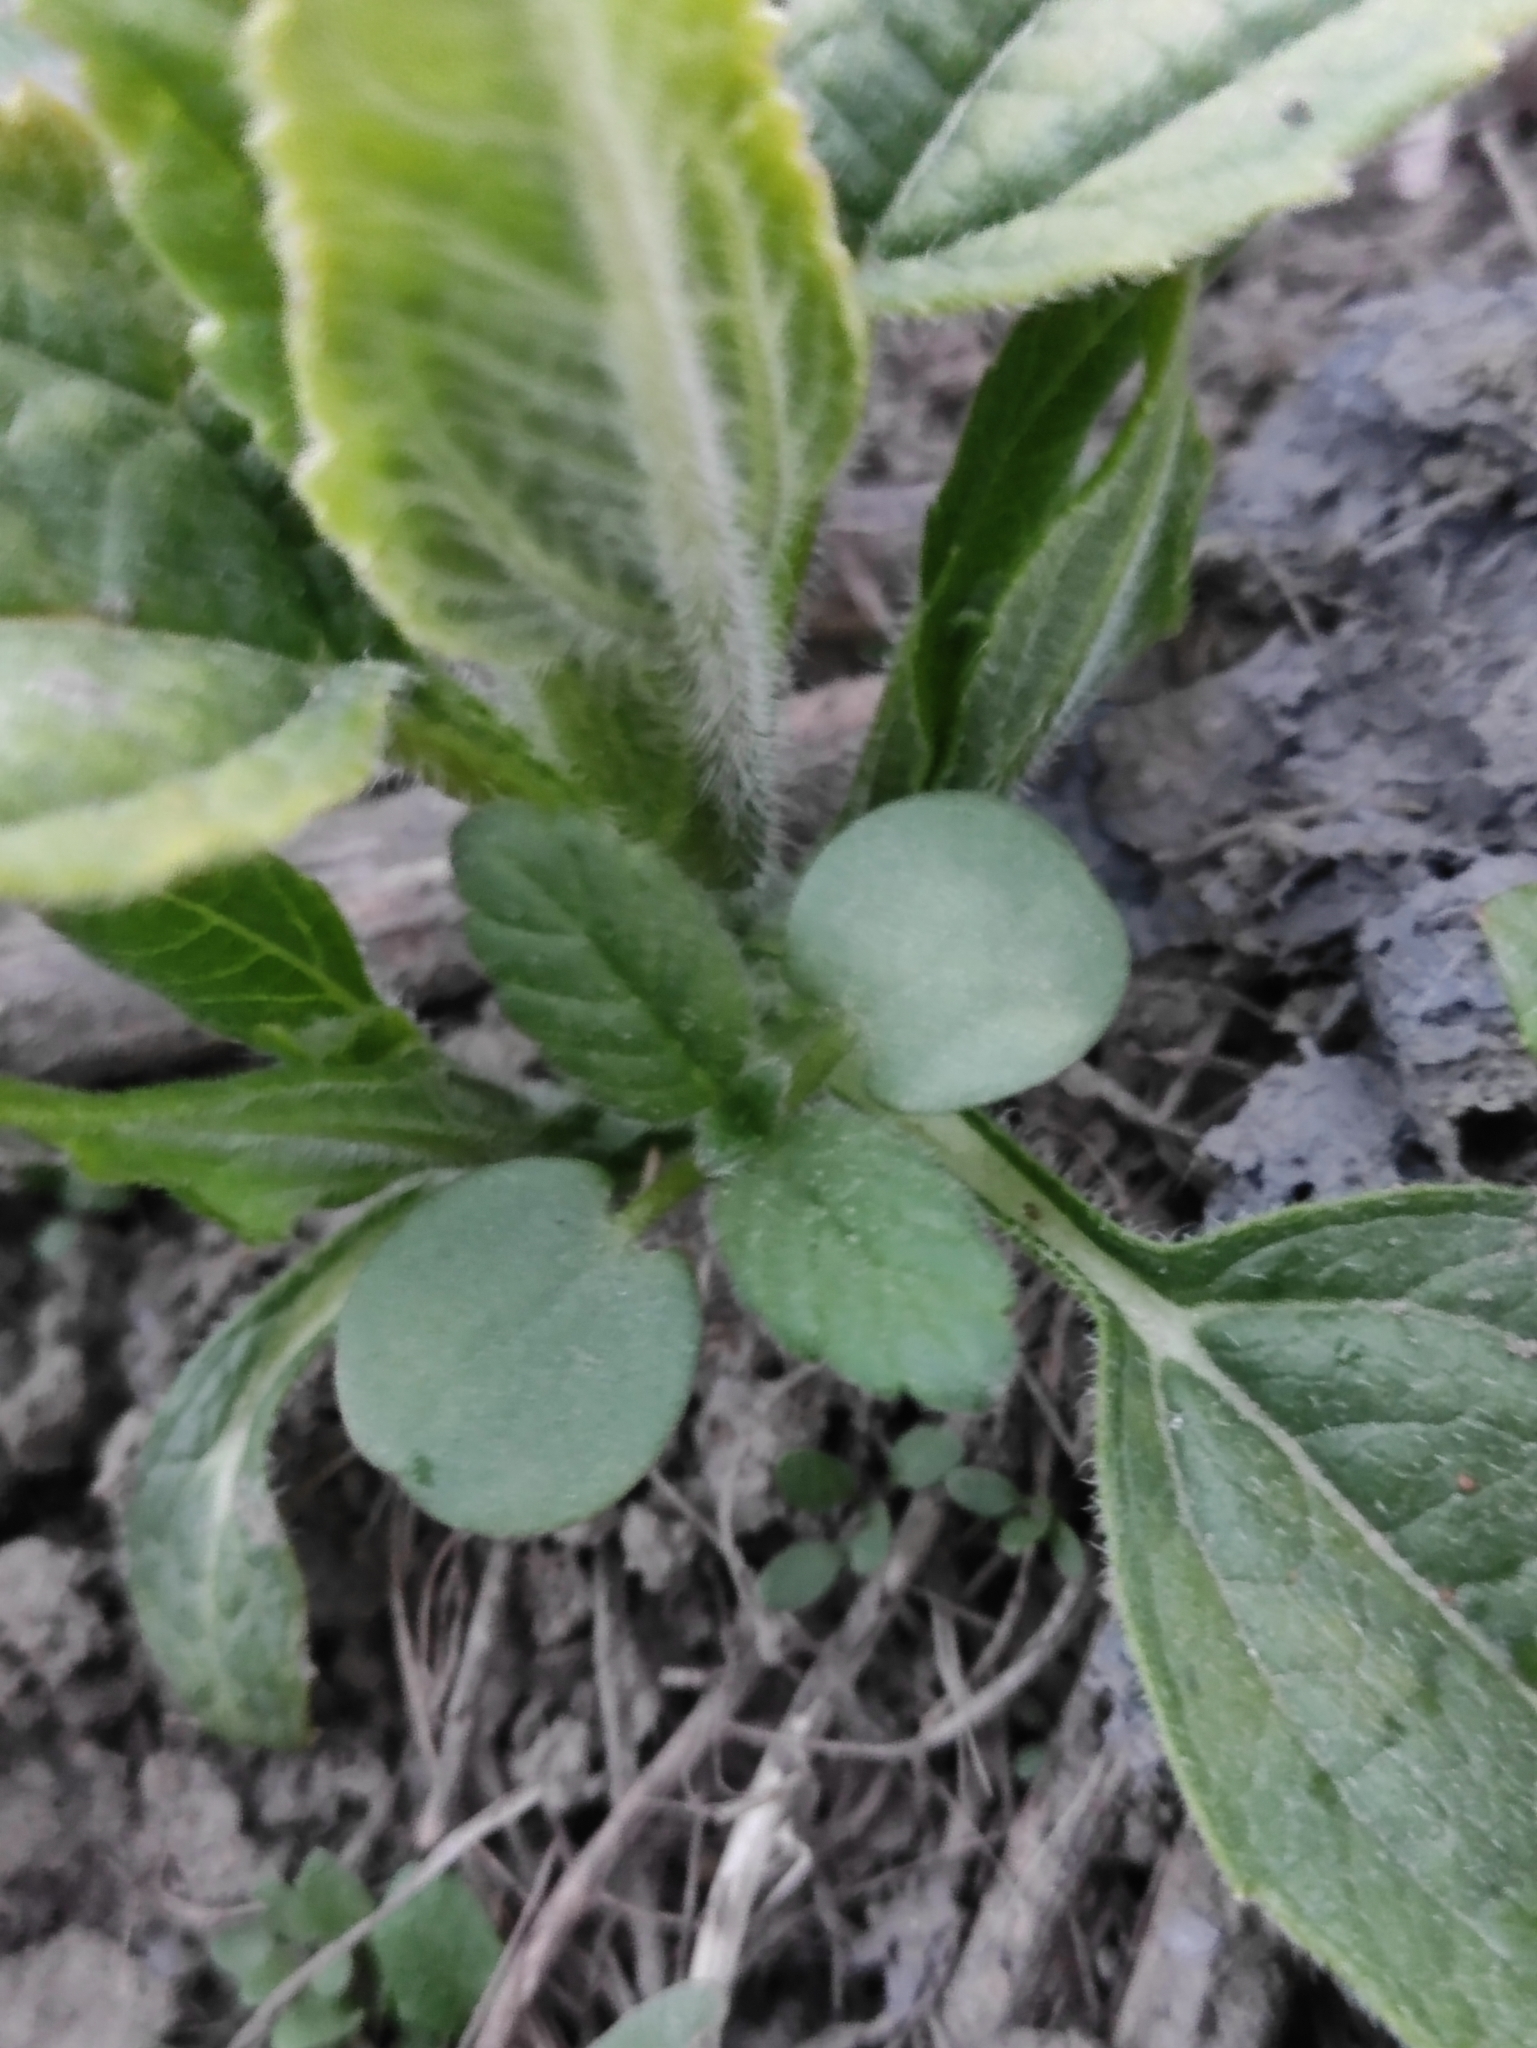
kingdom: Plantae
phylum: Tracheophyta
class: Magnoliopsida
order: Lamiales
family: Lamiaceae
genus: Galeopsis
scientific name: Galeopsis bifida
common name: Bifid hemp-nettle
